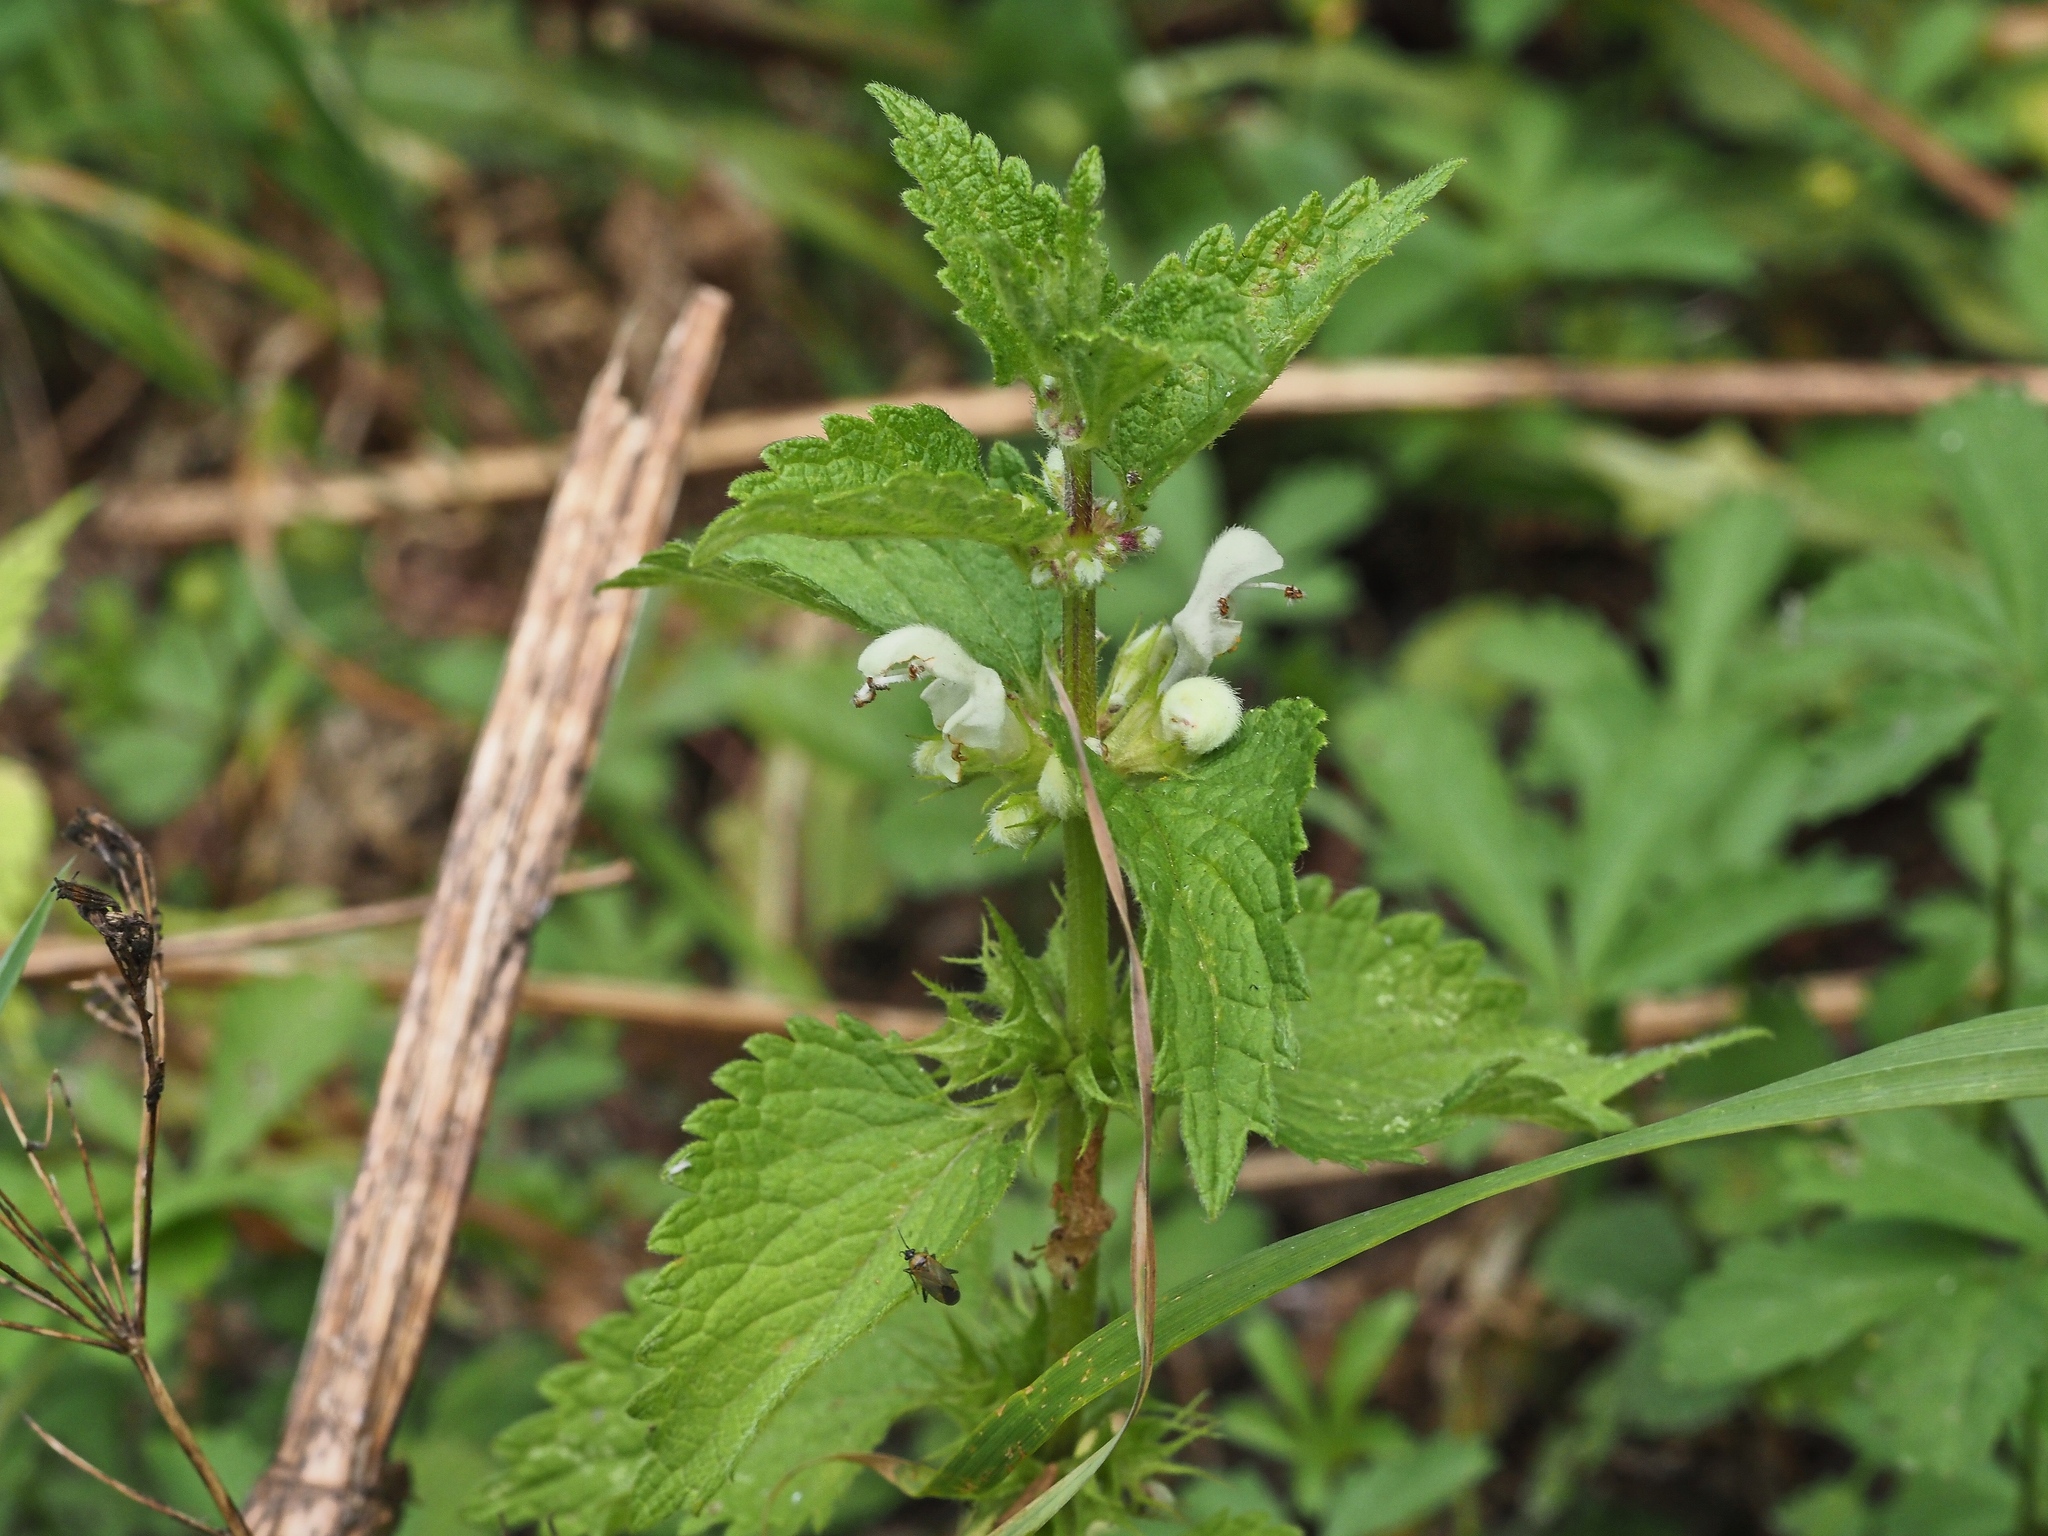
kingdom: Plantae
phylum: Tracheophyta
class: Magnoliopsida
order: Lamiales
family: Lamiaceae
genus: Lamium
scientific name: Lamium album
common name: White dead-nettle
